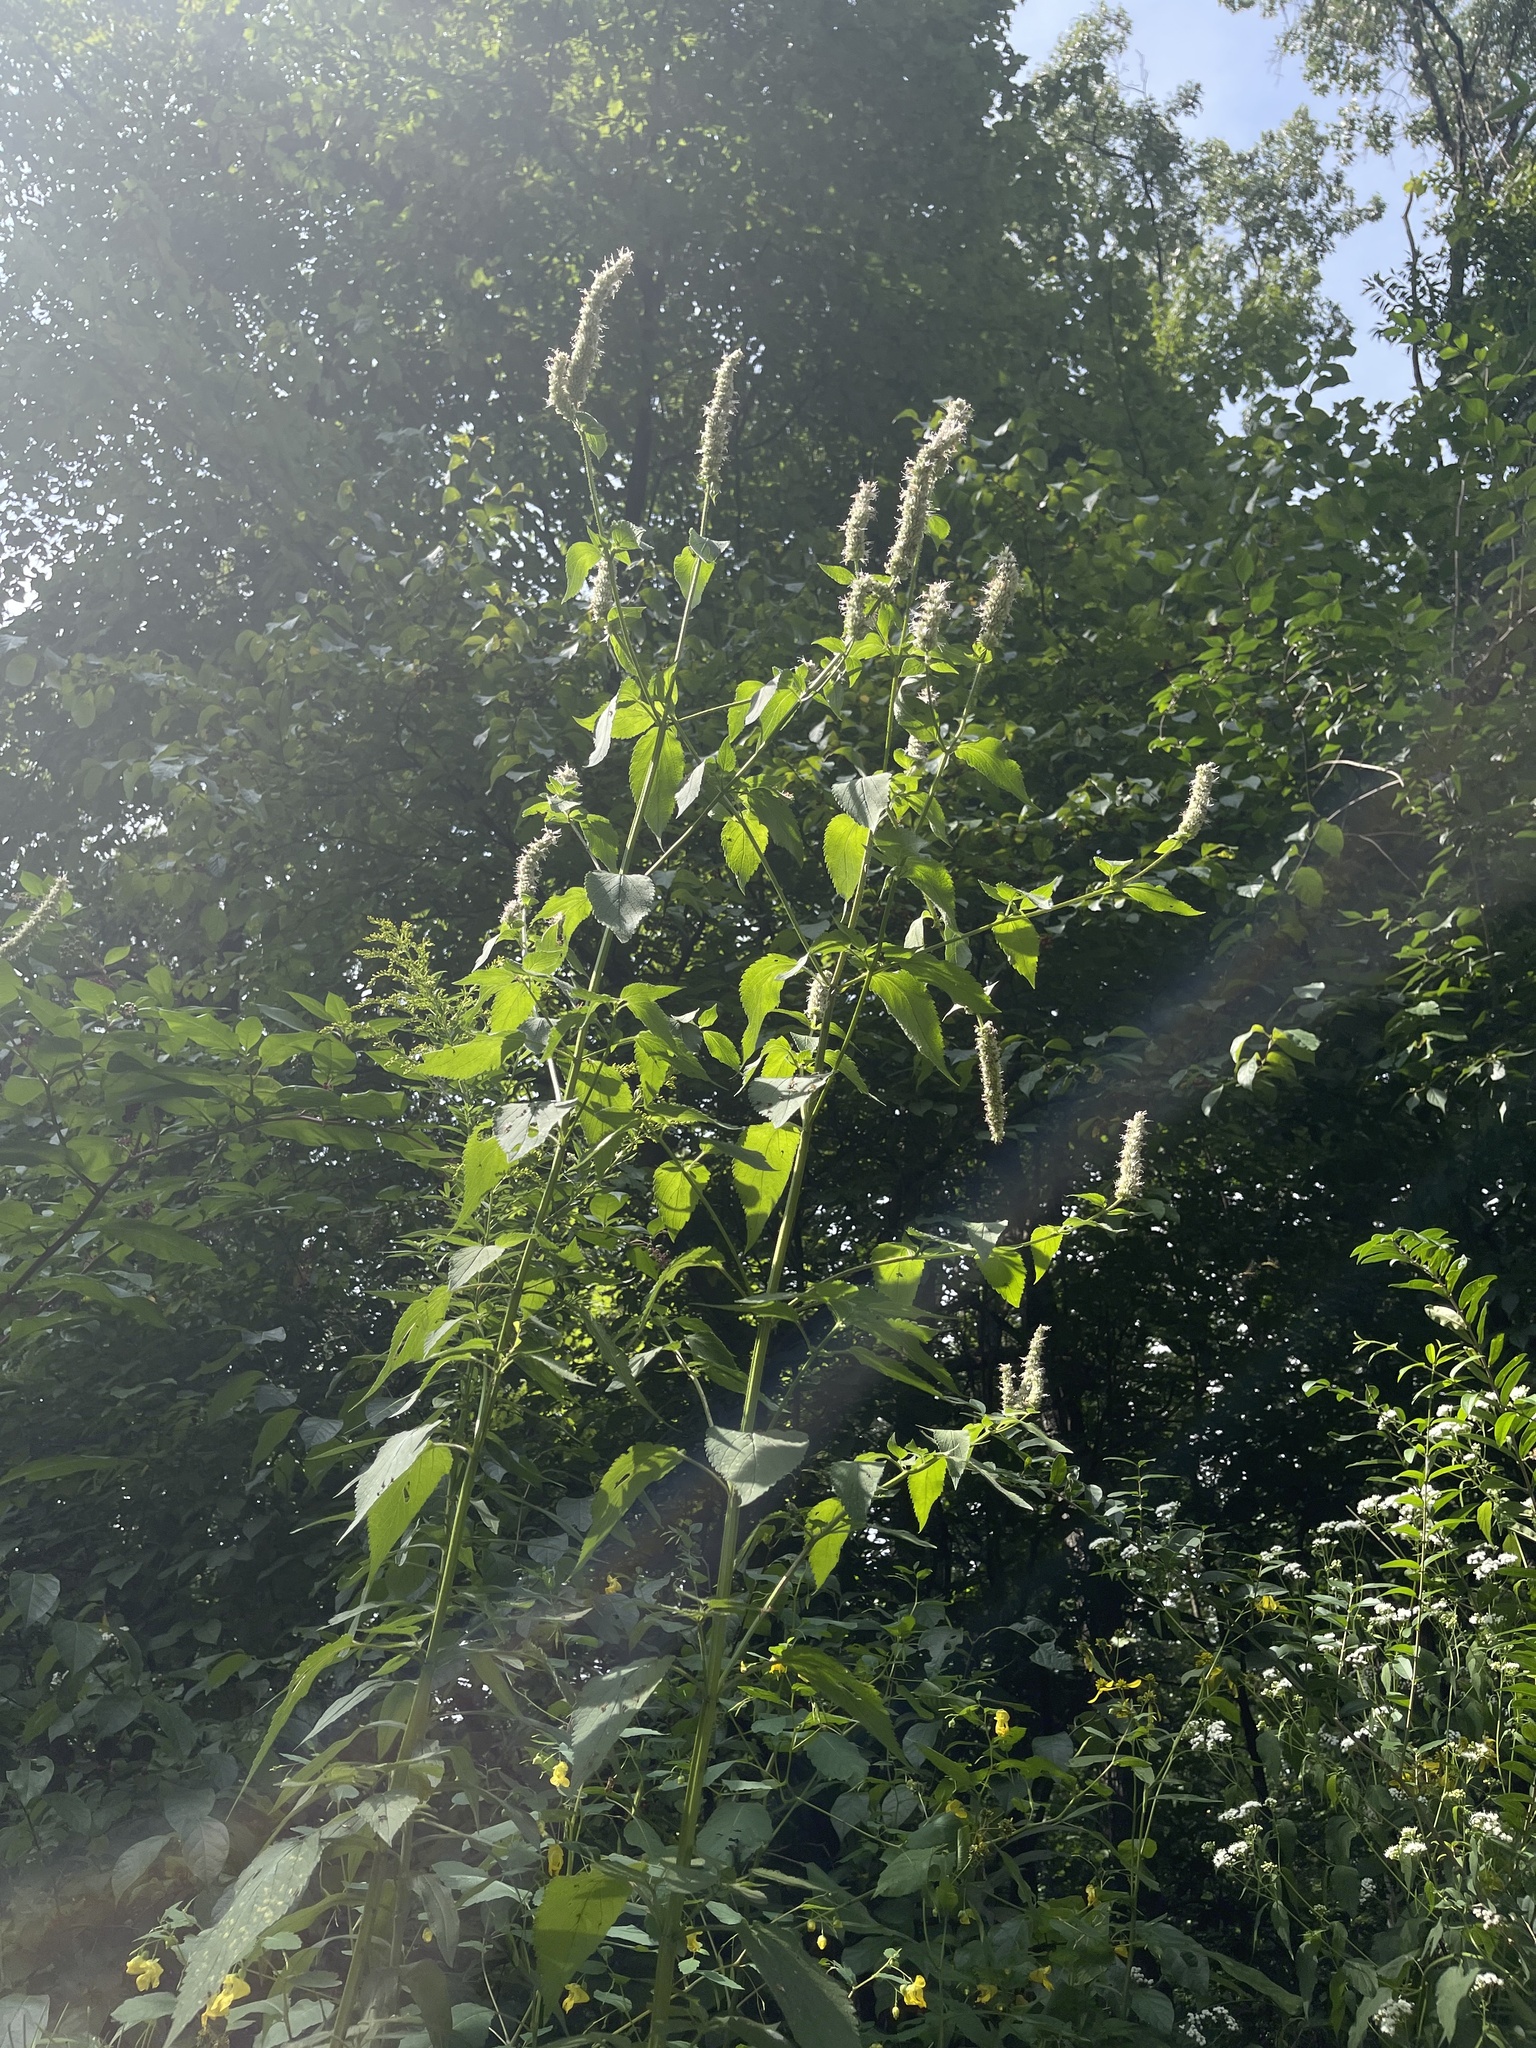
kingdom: Plantae
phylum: Tracheophyta
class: Magnoliopsida
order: Lamiales
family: Lamiaceae
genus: Agastache
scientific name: Agastache scrophulariifolia
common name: Figwort giant hyssop
